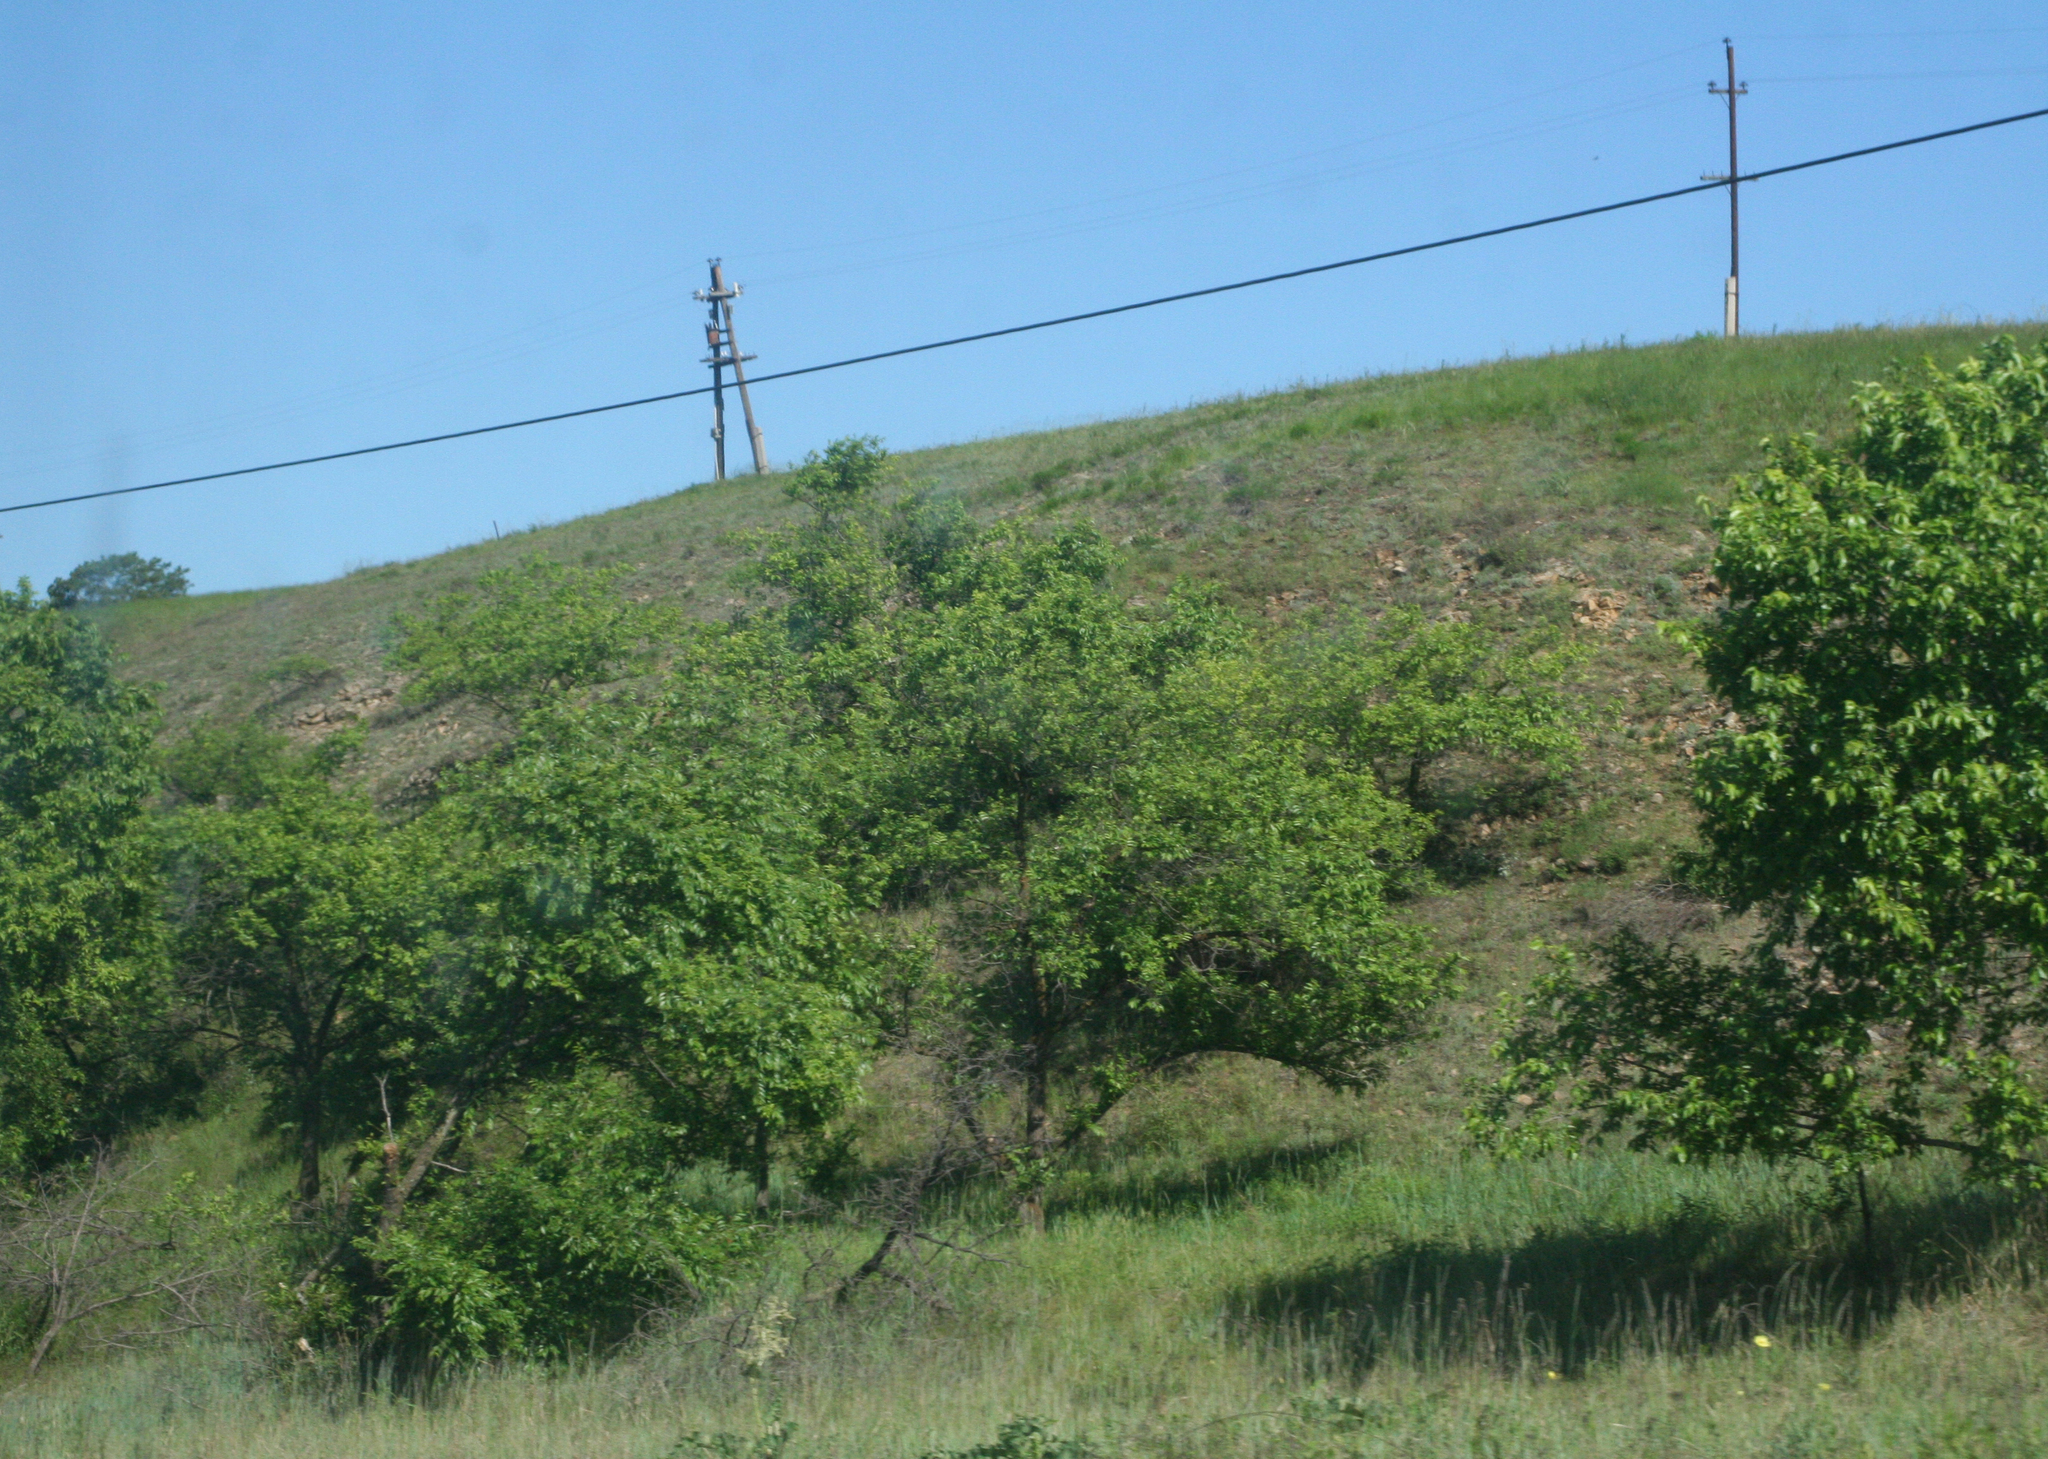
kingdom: Plantae
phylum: Tracheophyta
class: Magnoliopsida
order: Rosales
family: Ulmaceae
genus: Ulmus
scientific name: Ulmus pumila
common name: Siberian elm
